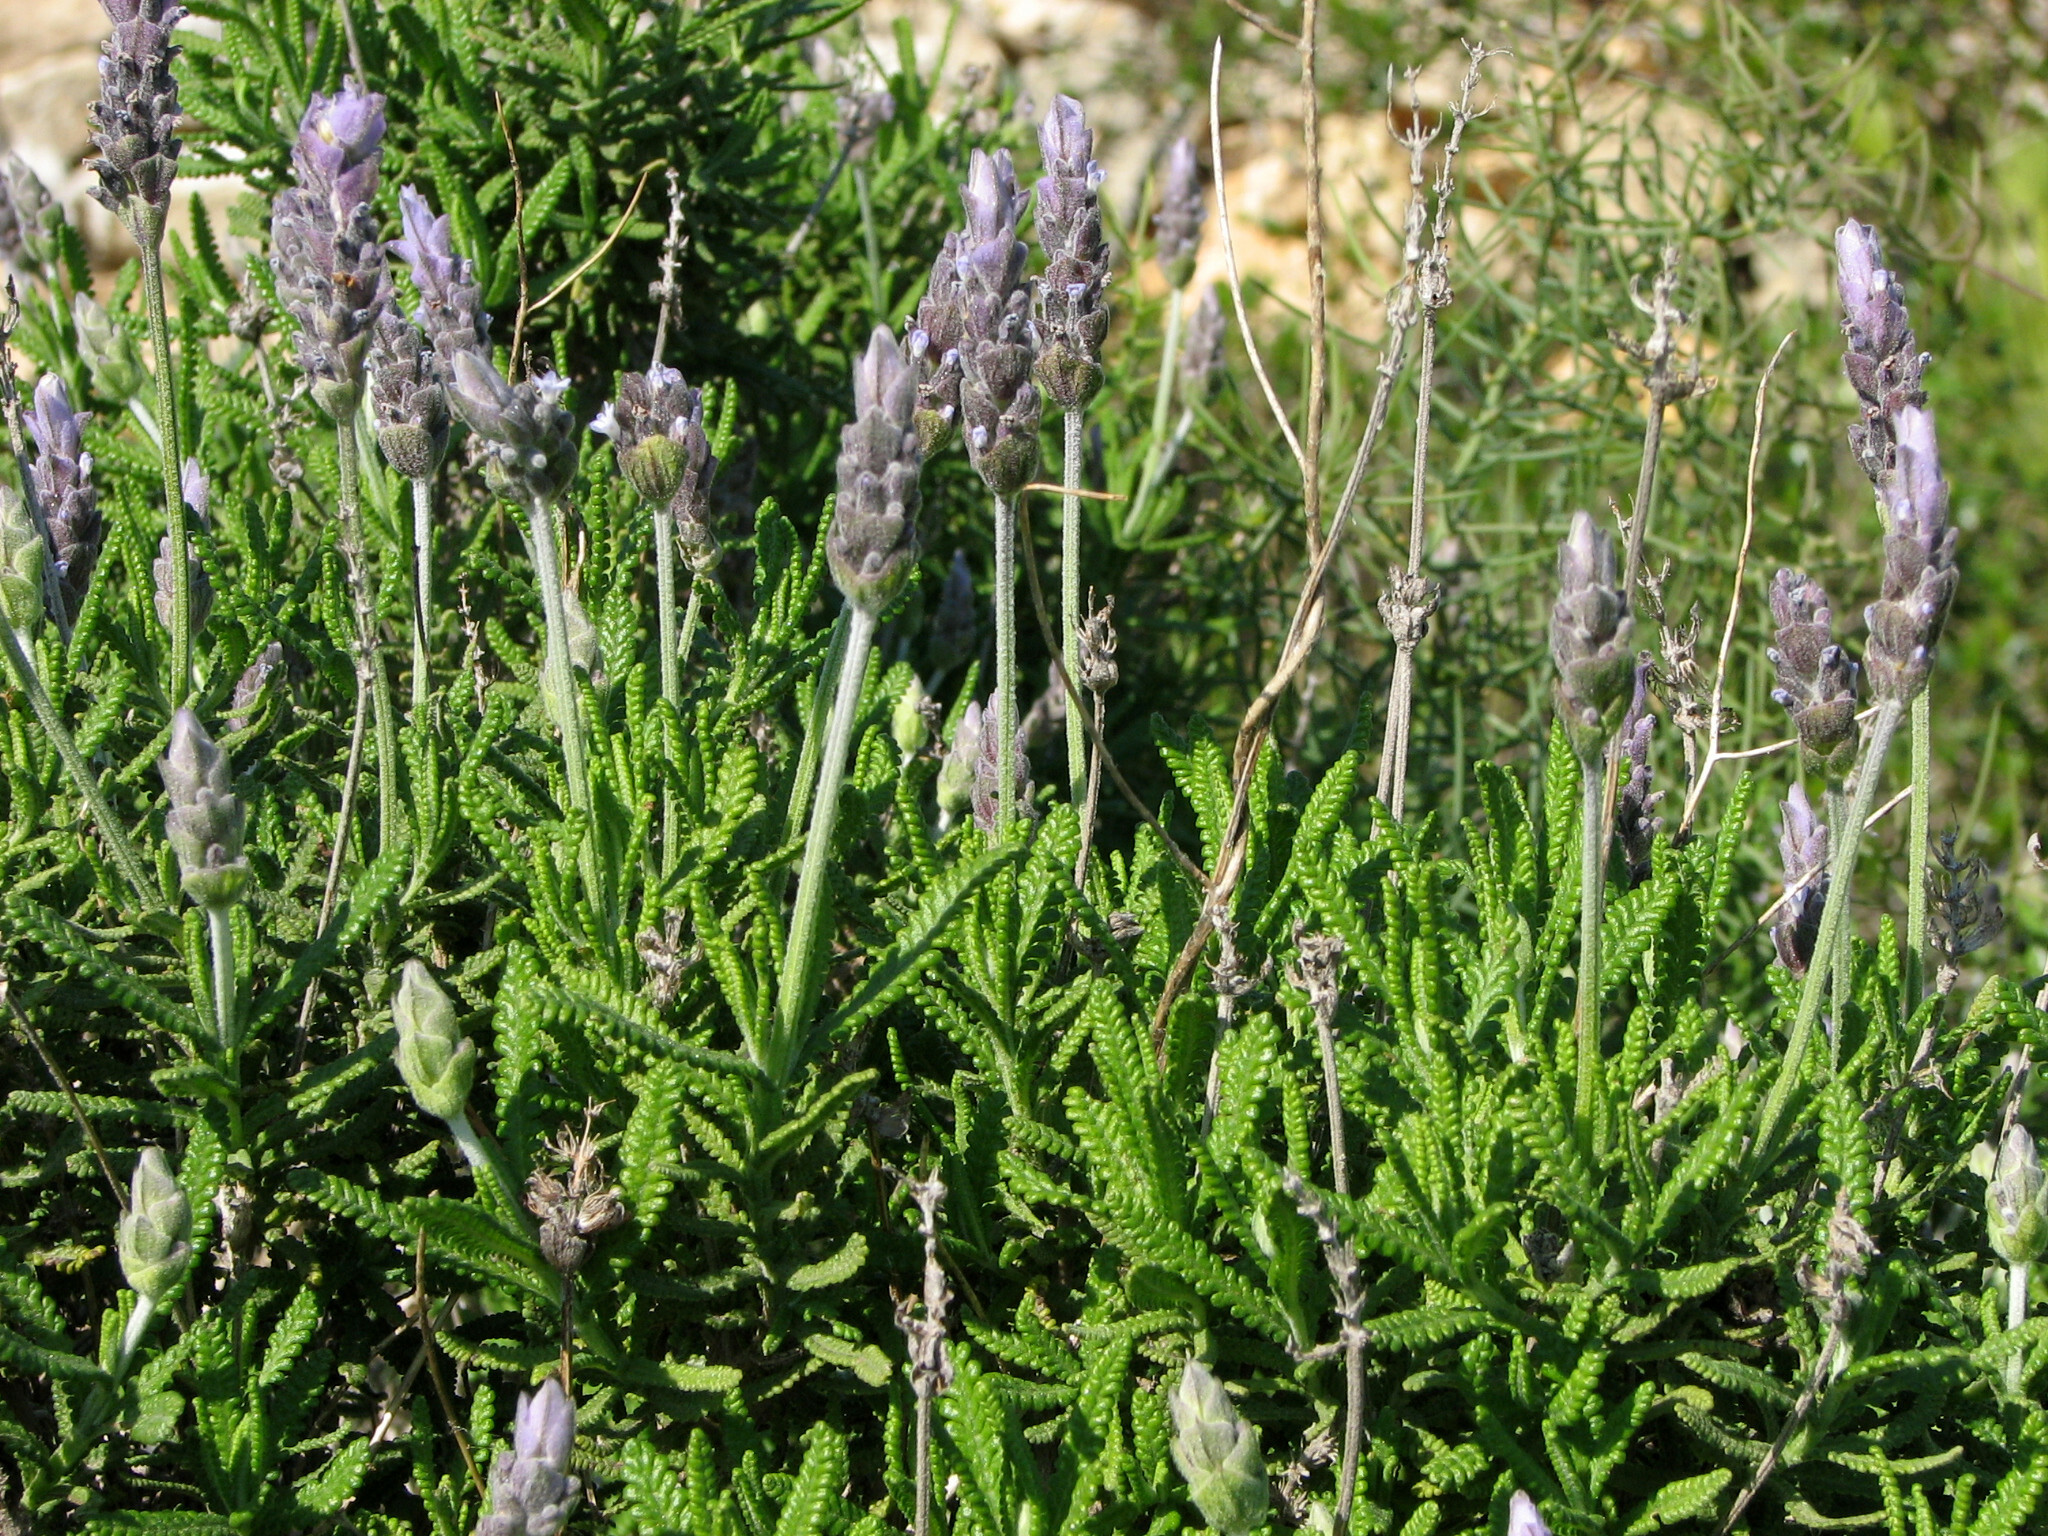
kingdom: Plantae
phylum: Tracheophyta
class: Magnoliopsida
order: Lamiales
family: Lamiaceae
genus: Lavandula
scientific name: Lavandula dentata
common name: French lavender
